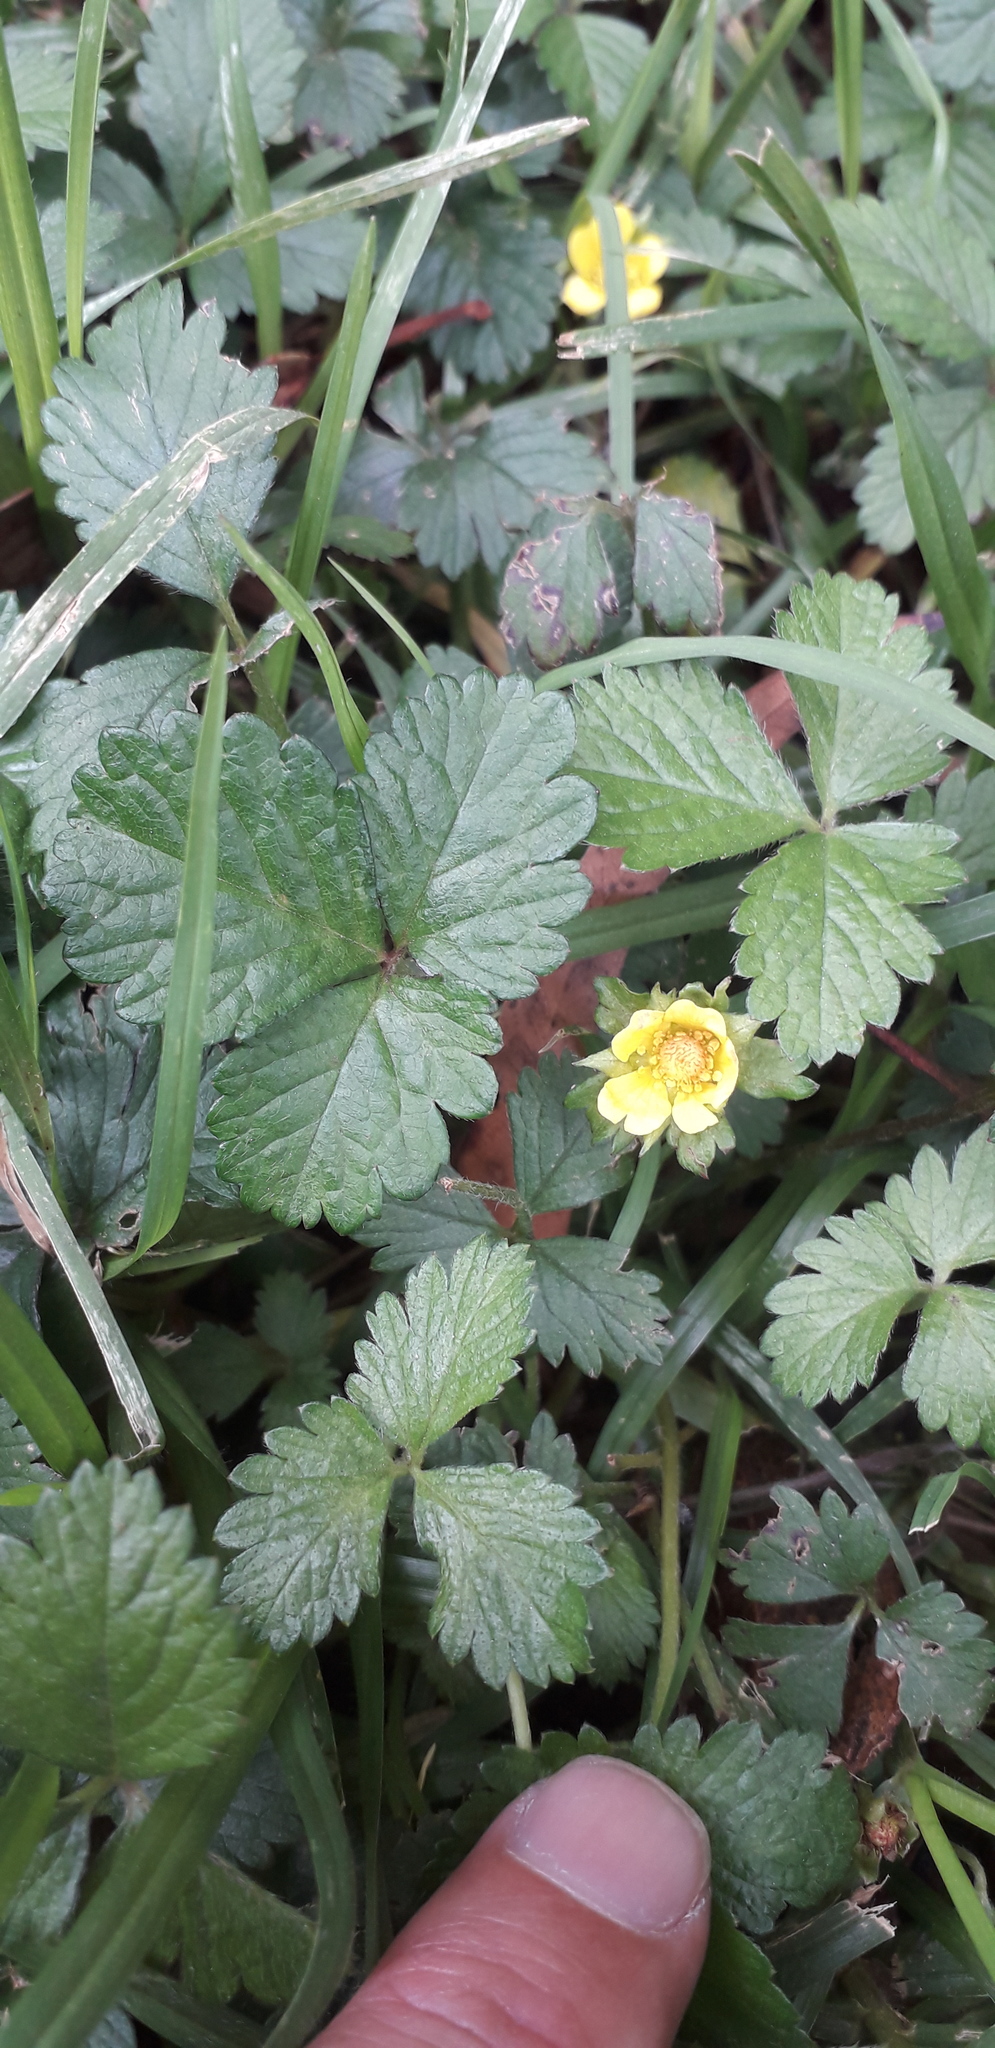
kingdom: Plantae
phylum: Tracheophyta
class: Magnoliopsida
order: Rosales
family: Rosaceae
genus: Potentilla
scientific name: Potentilla indica
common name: Yellow-flowered strawberry
